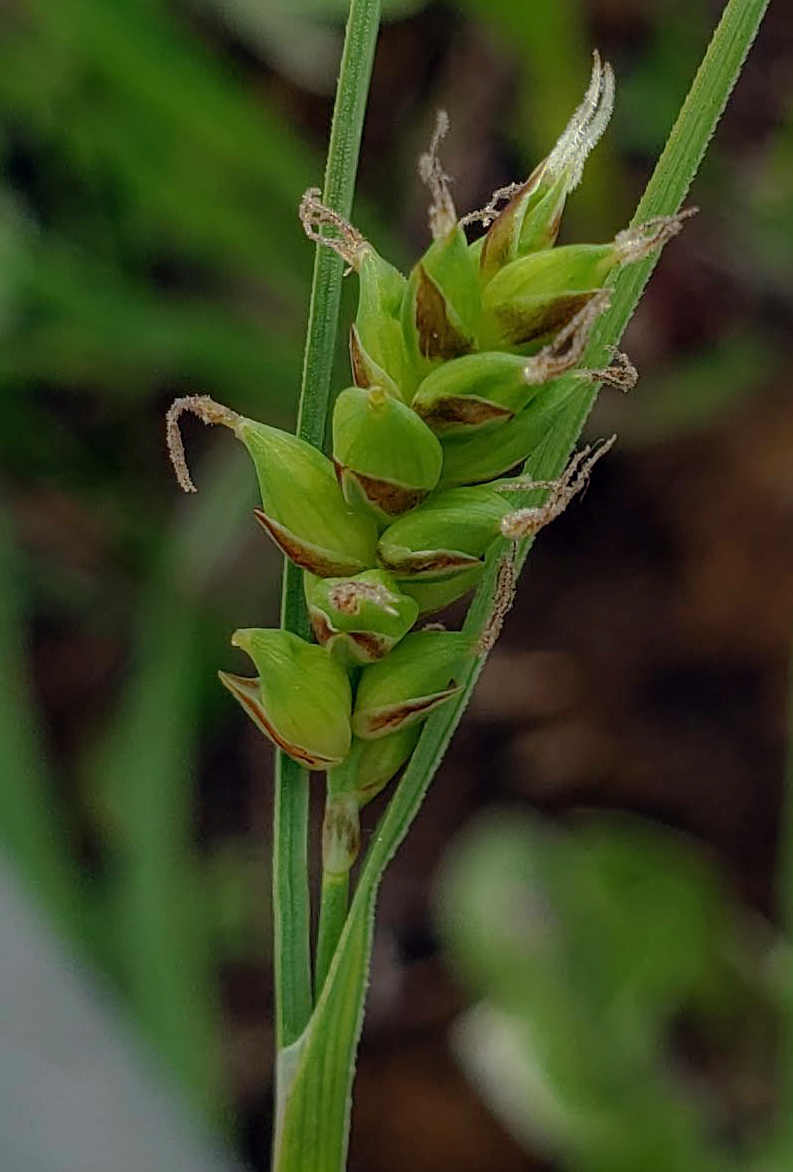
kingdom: Plantae
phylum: Tracheophyta
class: Liliopsida
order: Poales
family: Cyperaceae
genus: Carex
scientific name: Carex meadii
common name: Mead's sedge
